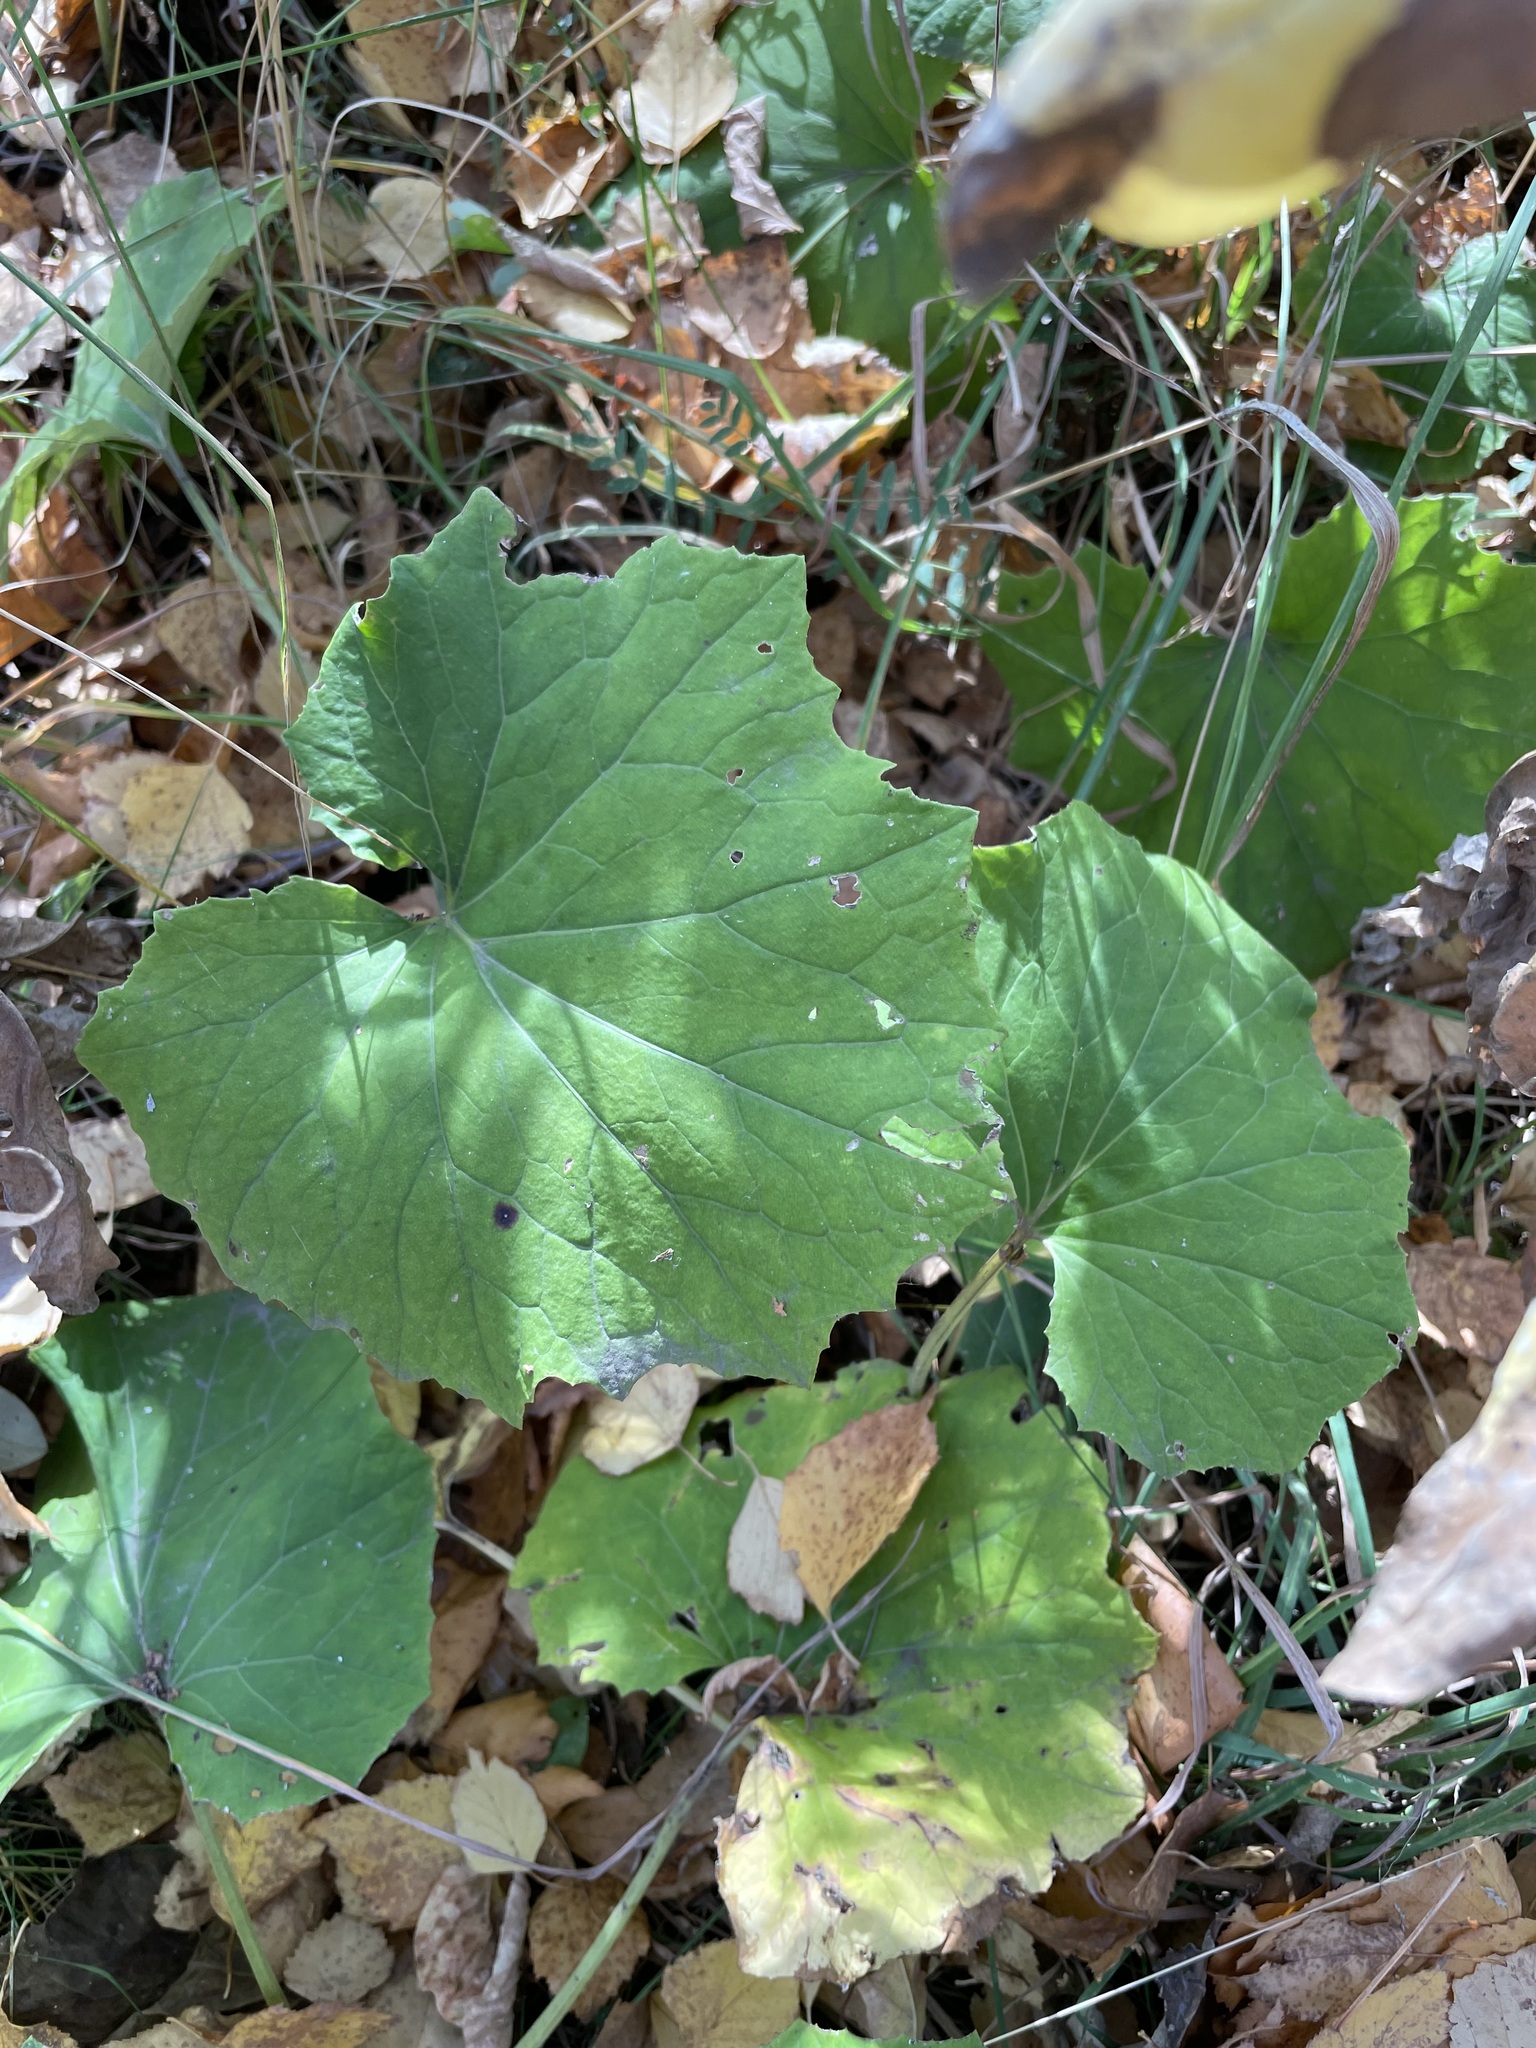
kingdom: Plantae
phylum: Tracheophyta
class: Magnoliopsida
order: Asterales
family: Asteraceae
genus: Tussilago
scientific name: Tussilago farfara
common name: Coltsfoot
